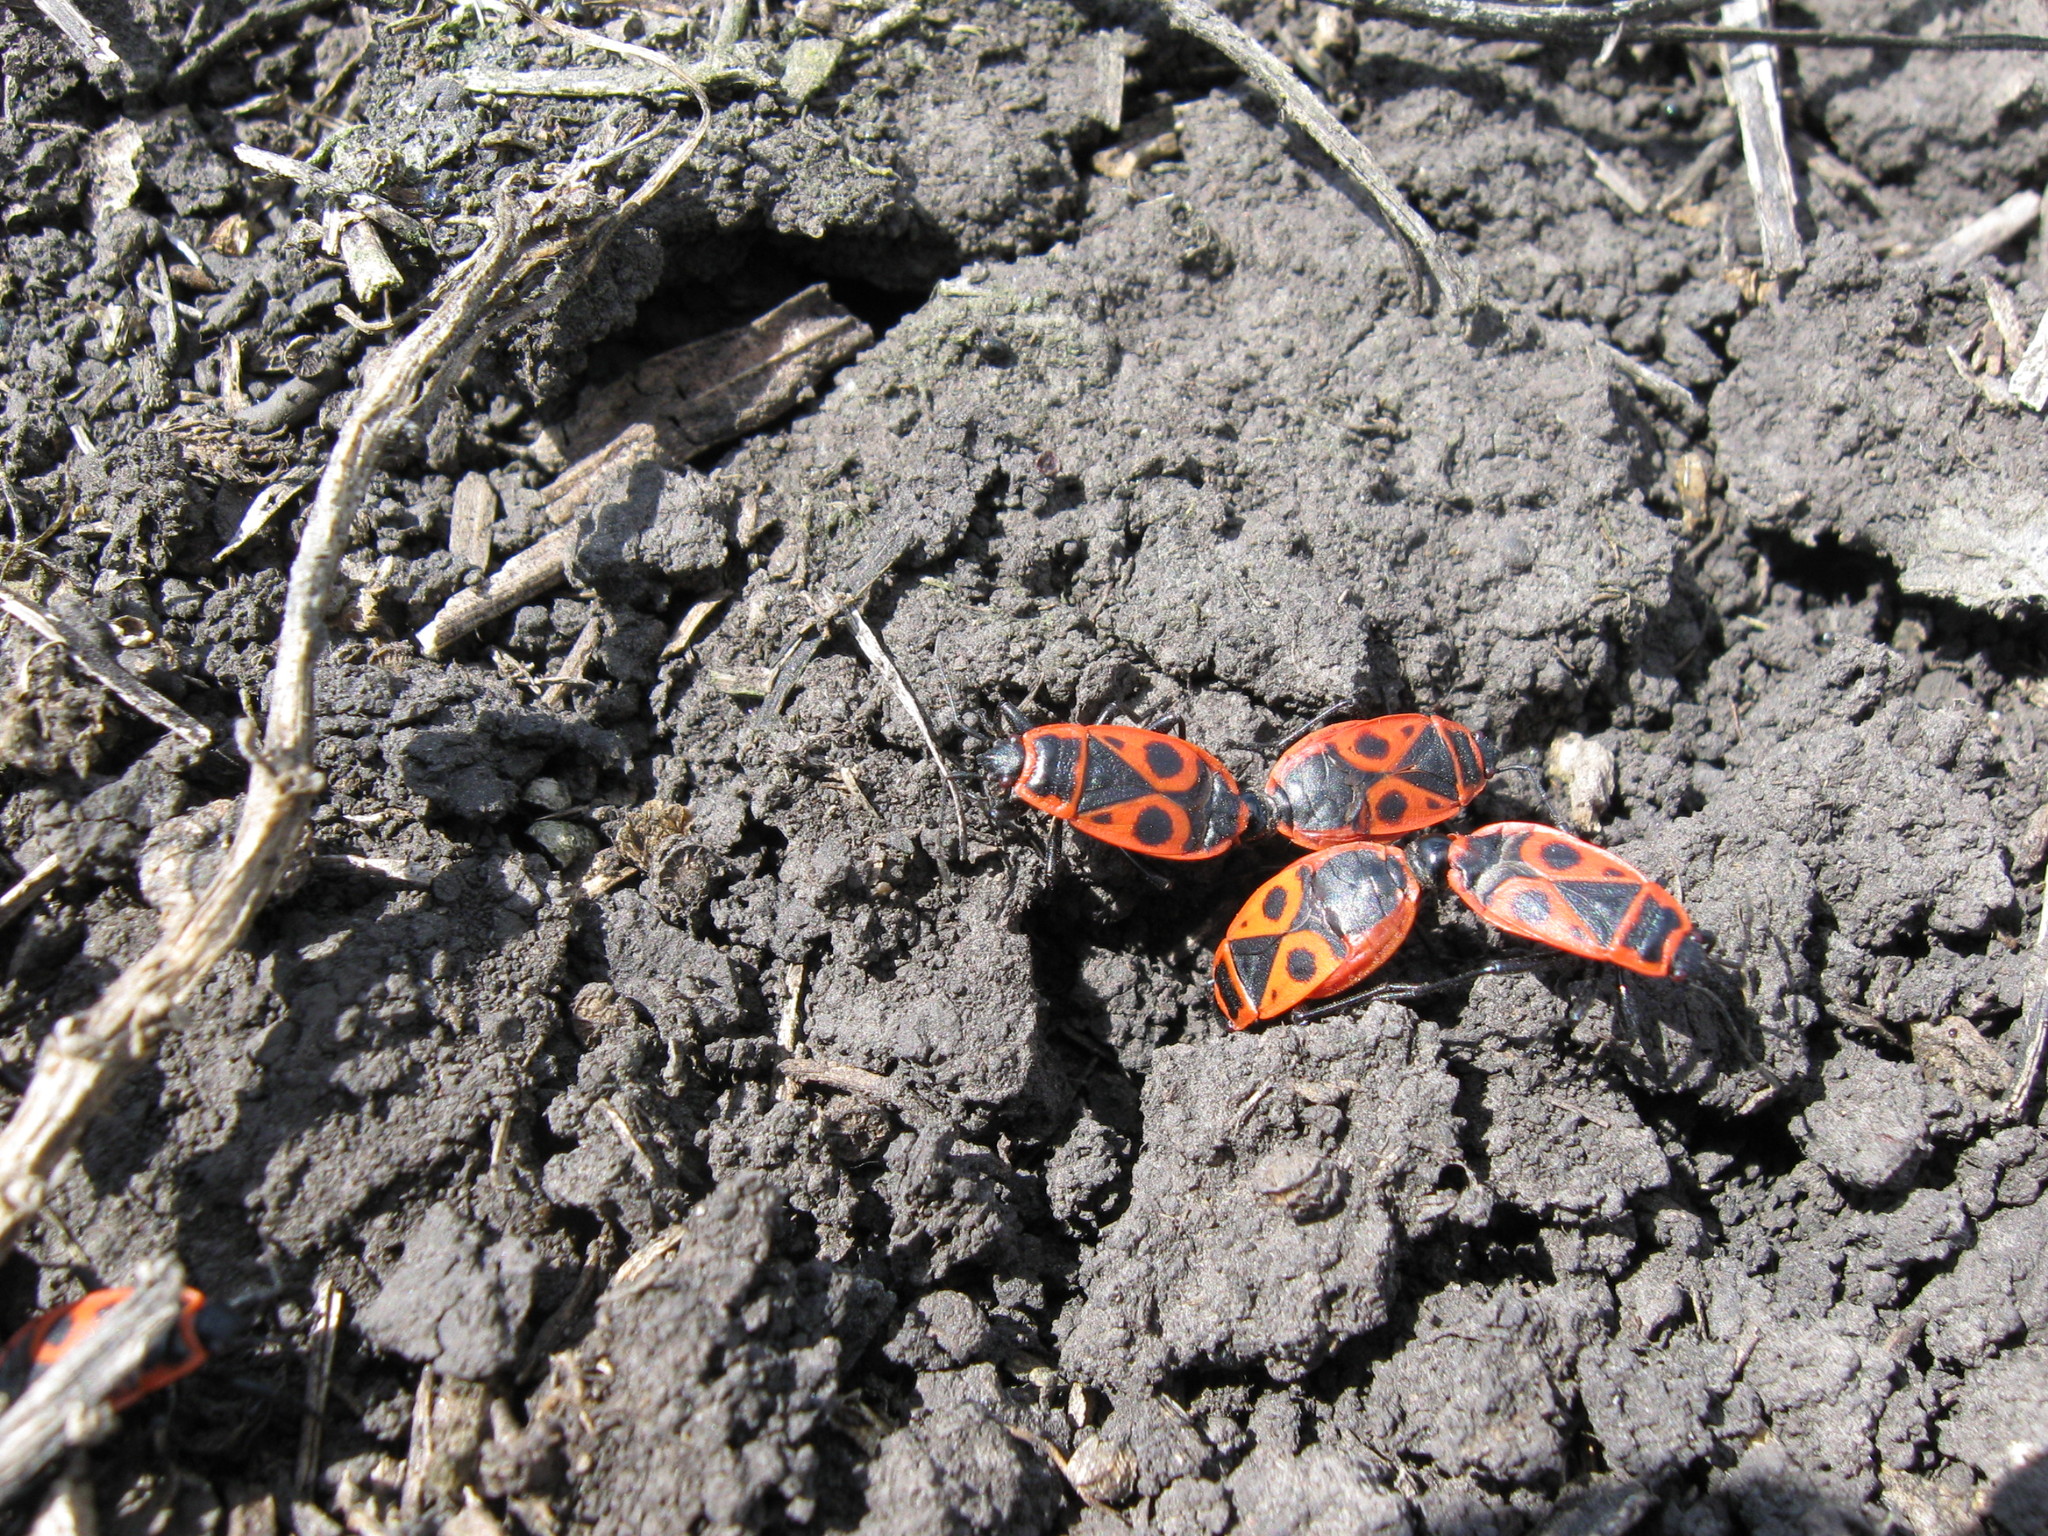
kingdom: Animalia
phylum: Arthropoda
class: Insecta
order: Hemiptera
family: Pyrrhocoridae
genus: Pyrrhocoris
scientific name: Pyrrhocoris apterus
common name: Firebug
